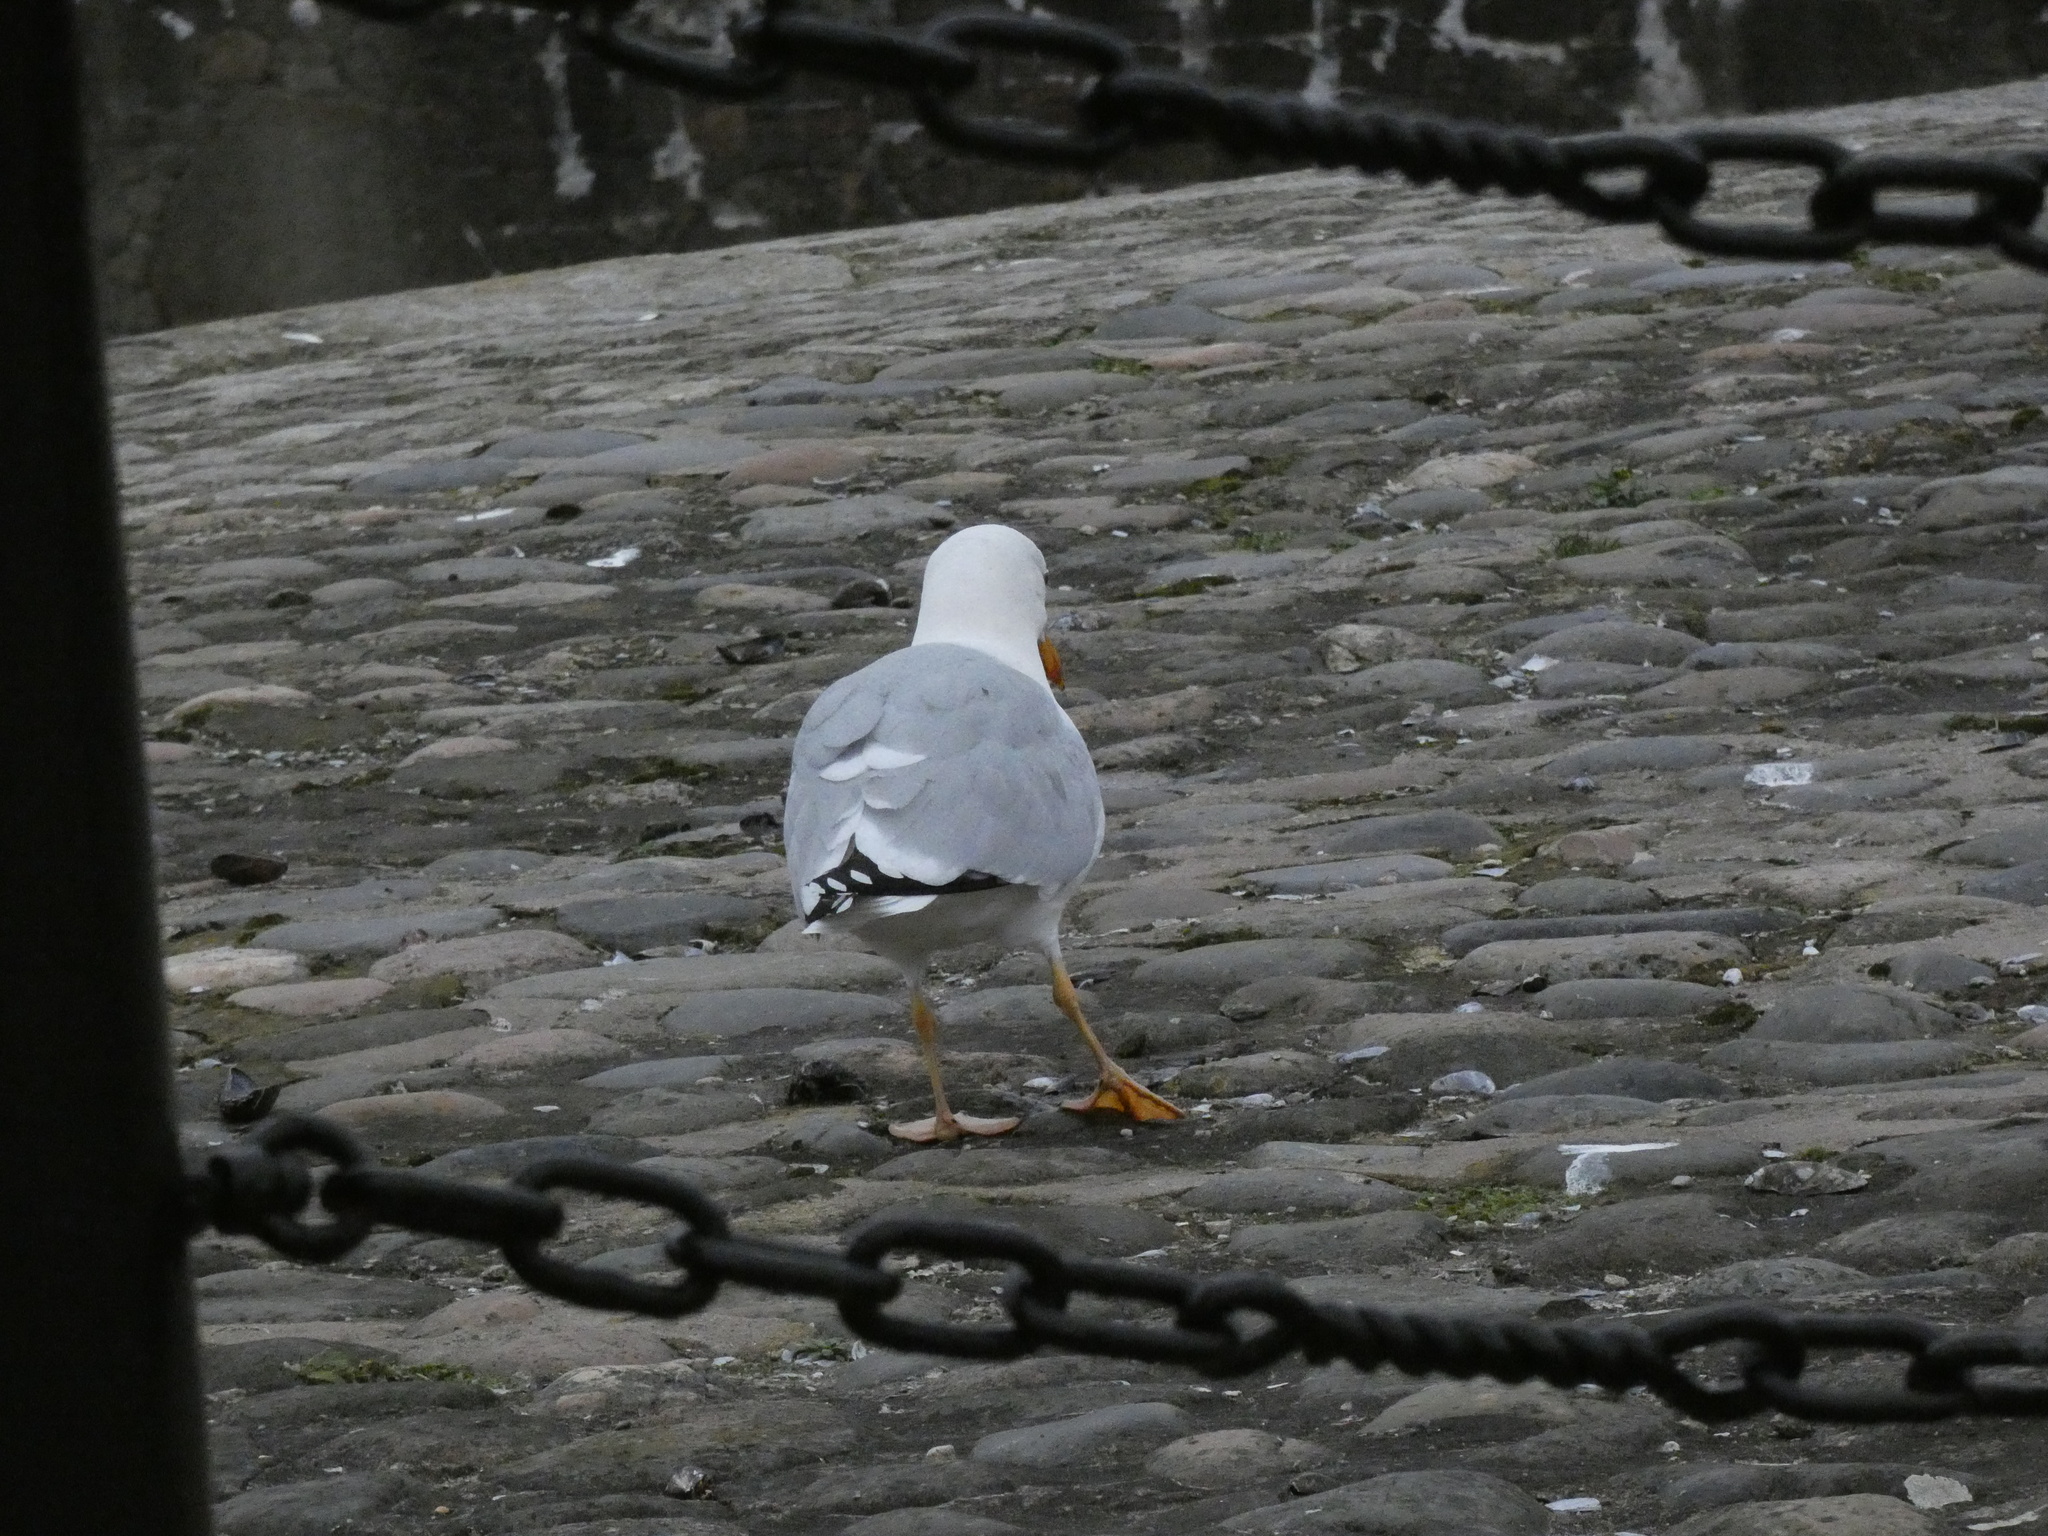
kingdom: Animalia
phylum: Chordata
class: Aves
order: Charadriiformes
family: Laridae
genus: Larus
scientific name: Larus michahellis
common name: Yellow-legged gull
